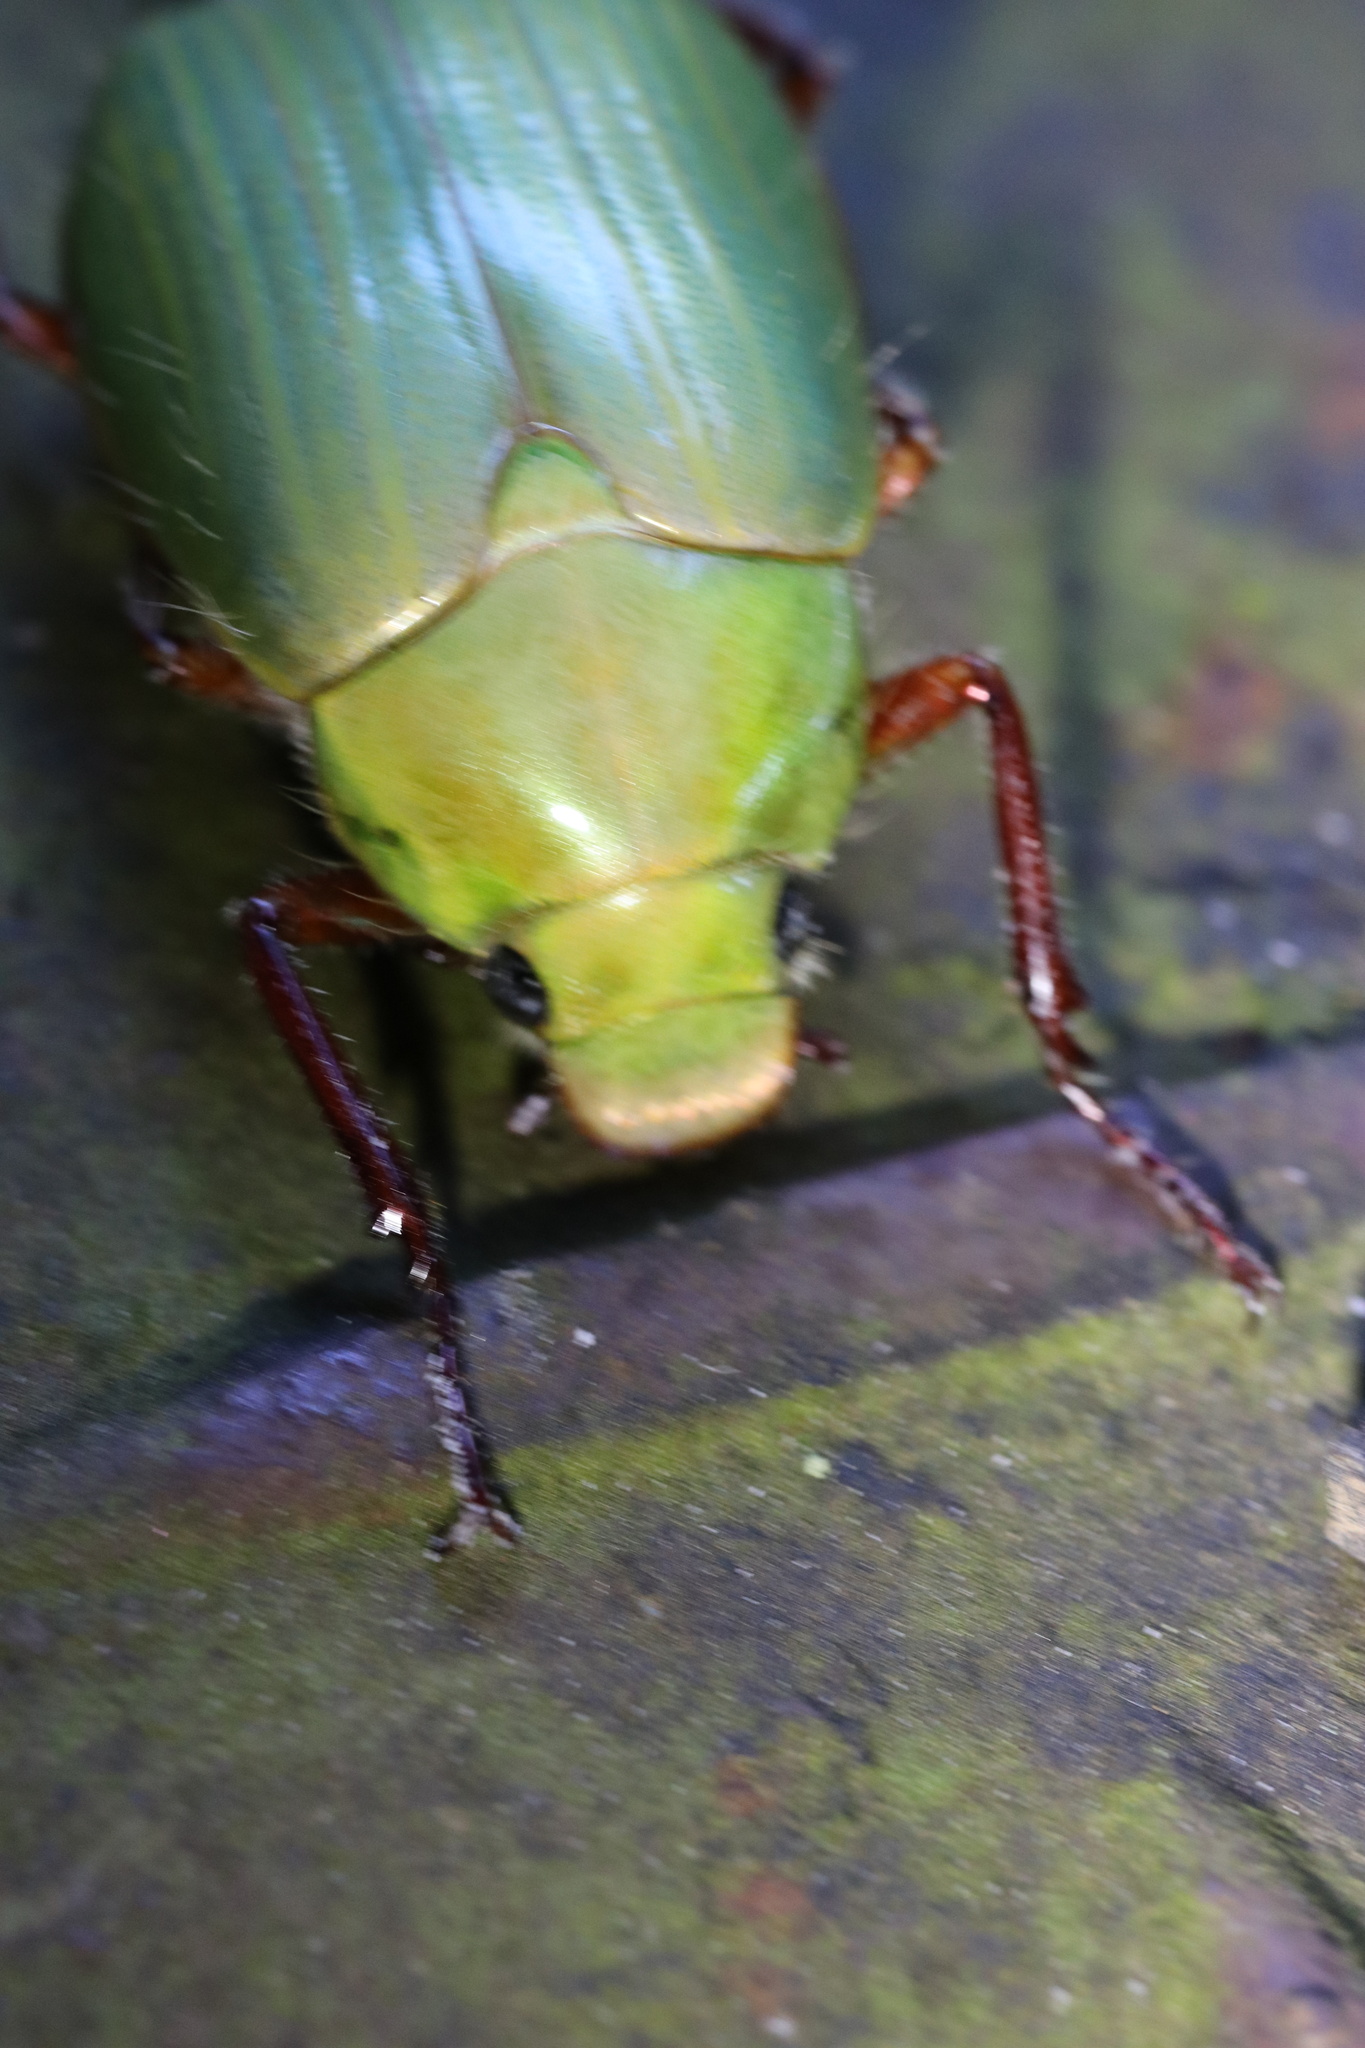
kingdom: Animalia
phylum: Arthropoda
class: Insecta
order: Coleoptera
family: Scarabaeidae
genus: Modialis
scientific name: Modialis prasinella
